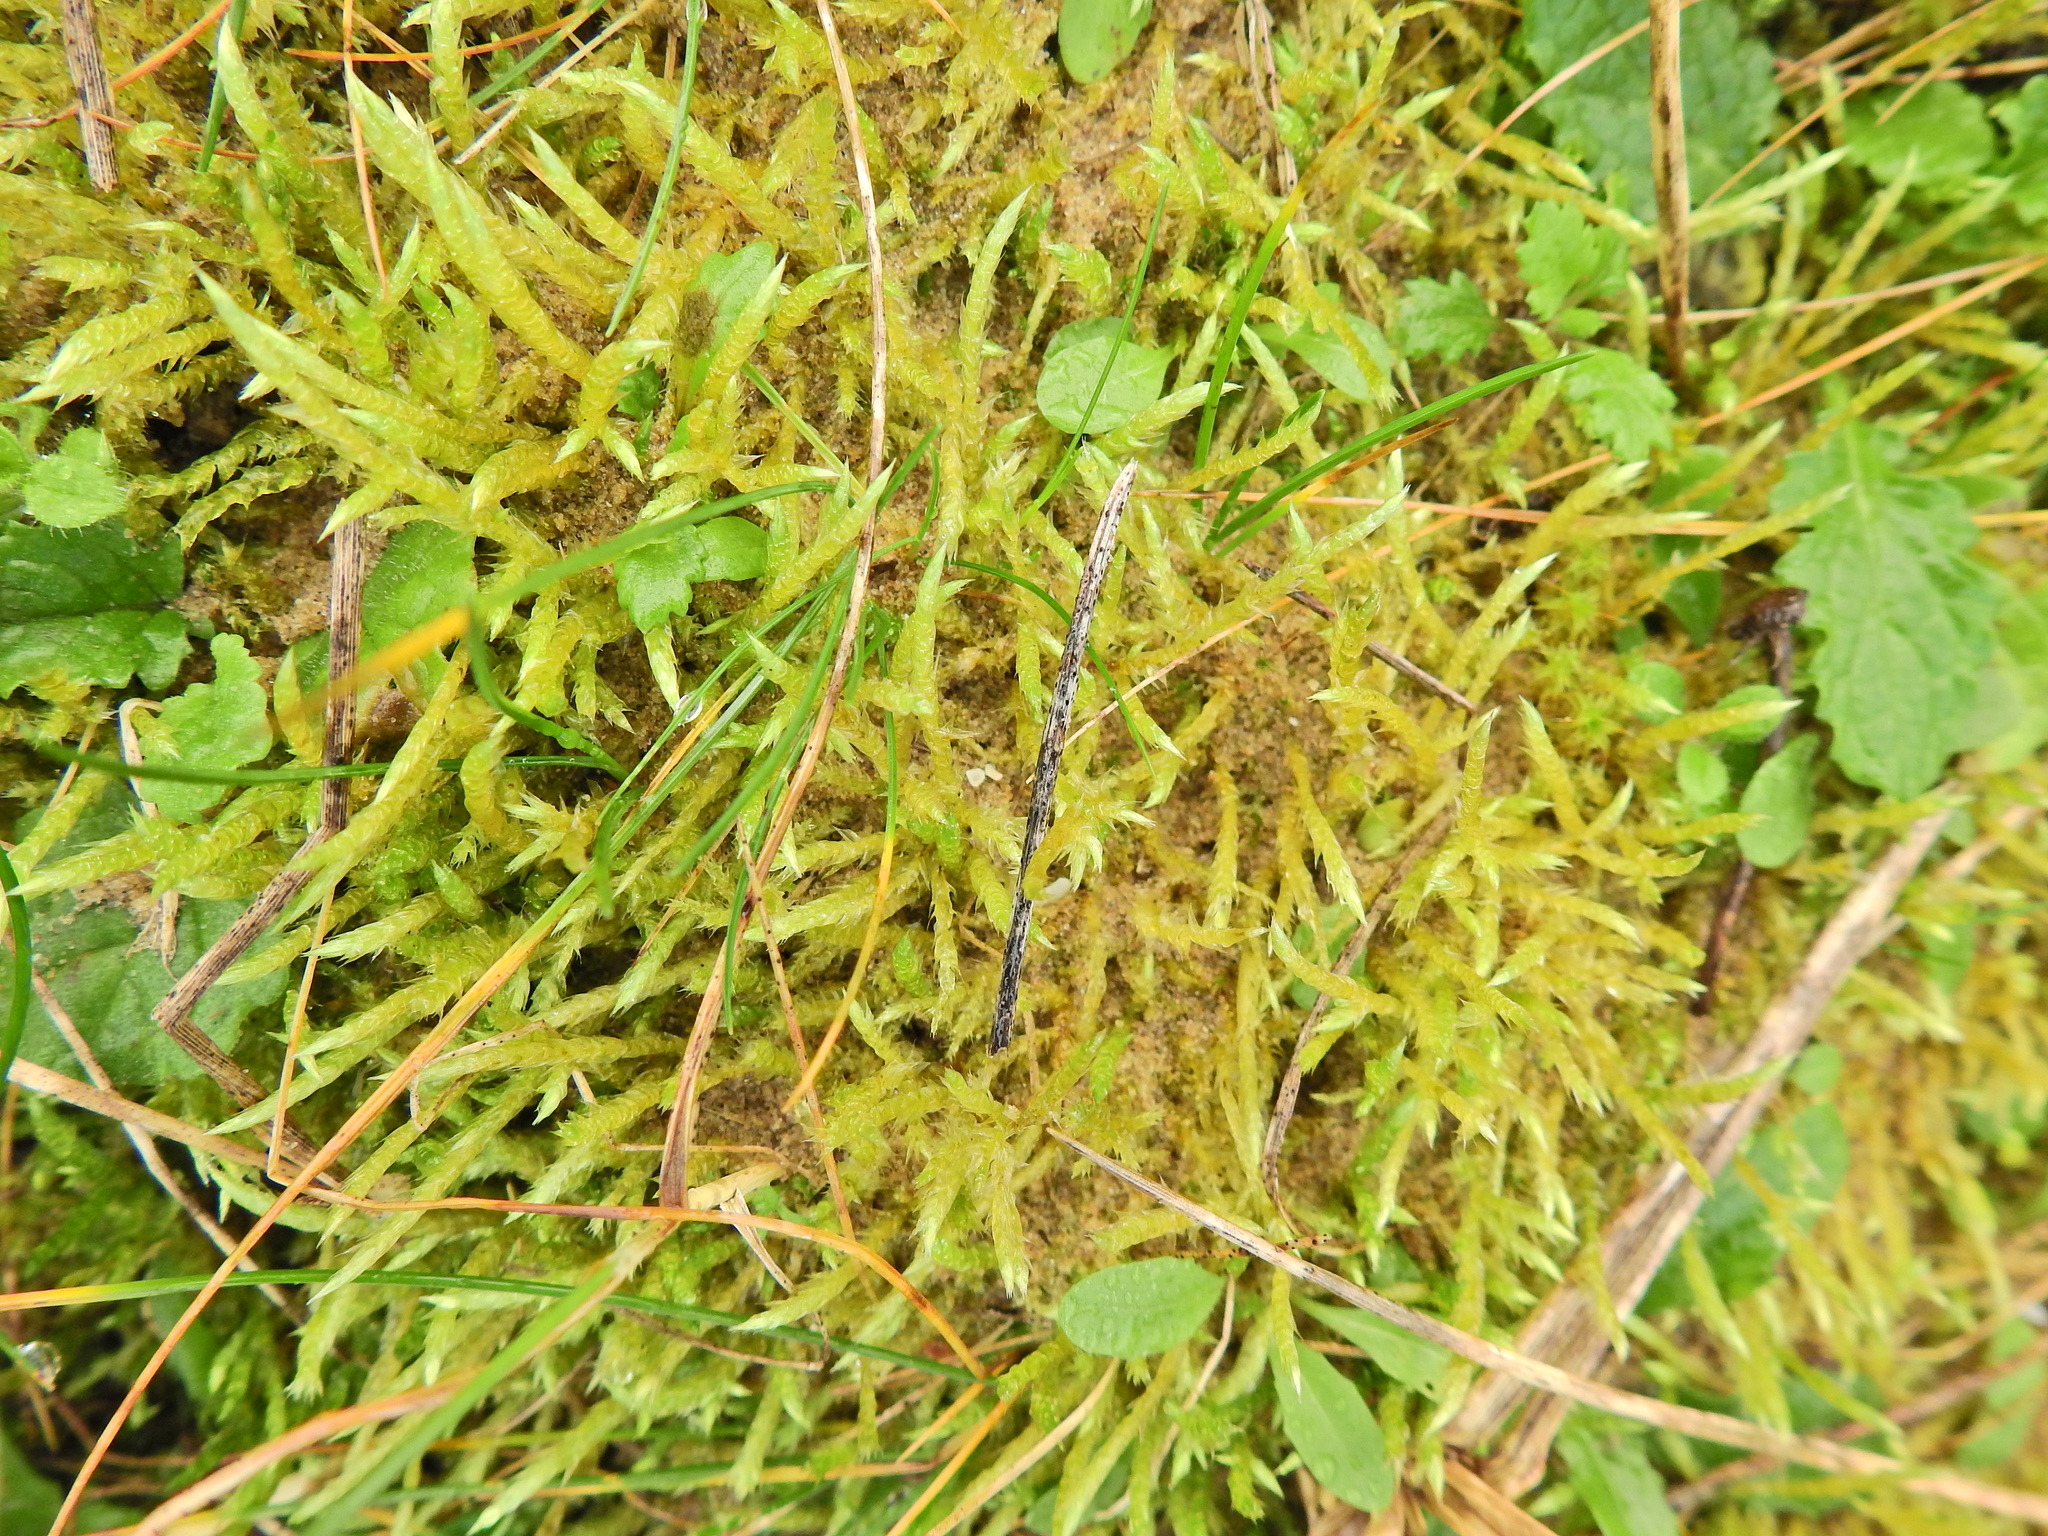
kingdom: Plantae
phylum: Bryophyta
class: Bryopsida
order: Hypnales
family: Brachytheciaceae
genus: Brachythecium
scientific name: Brachythecium albicans
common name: Whitish ragged moss
